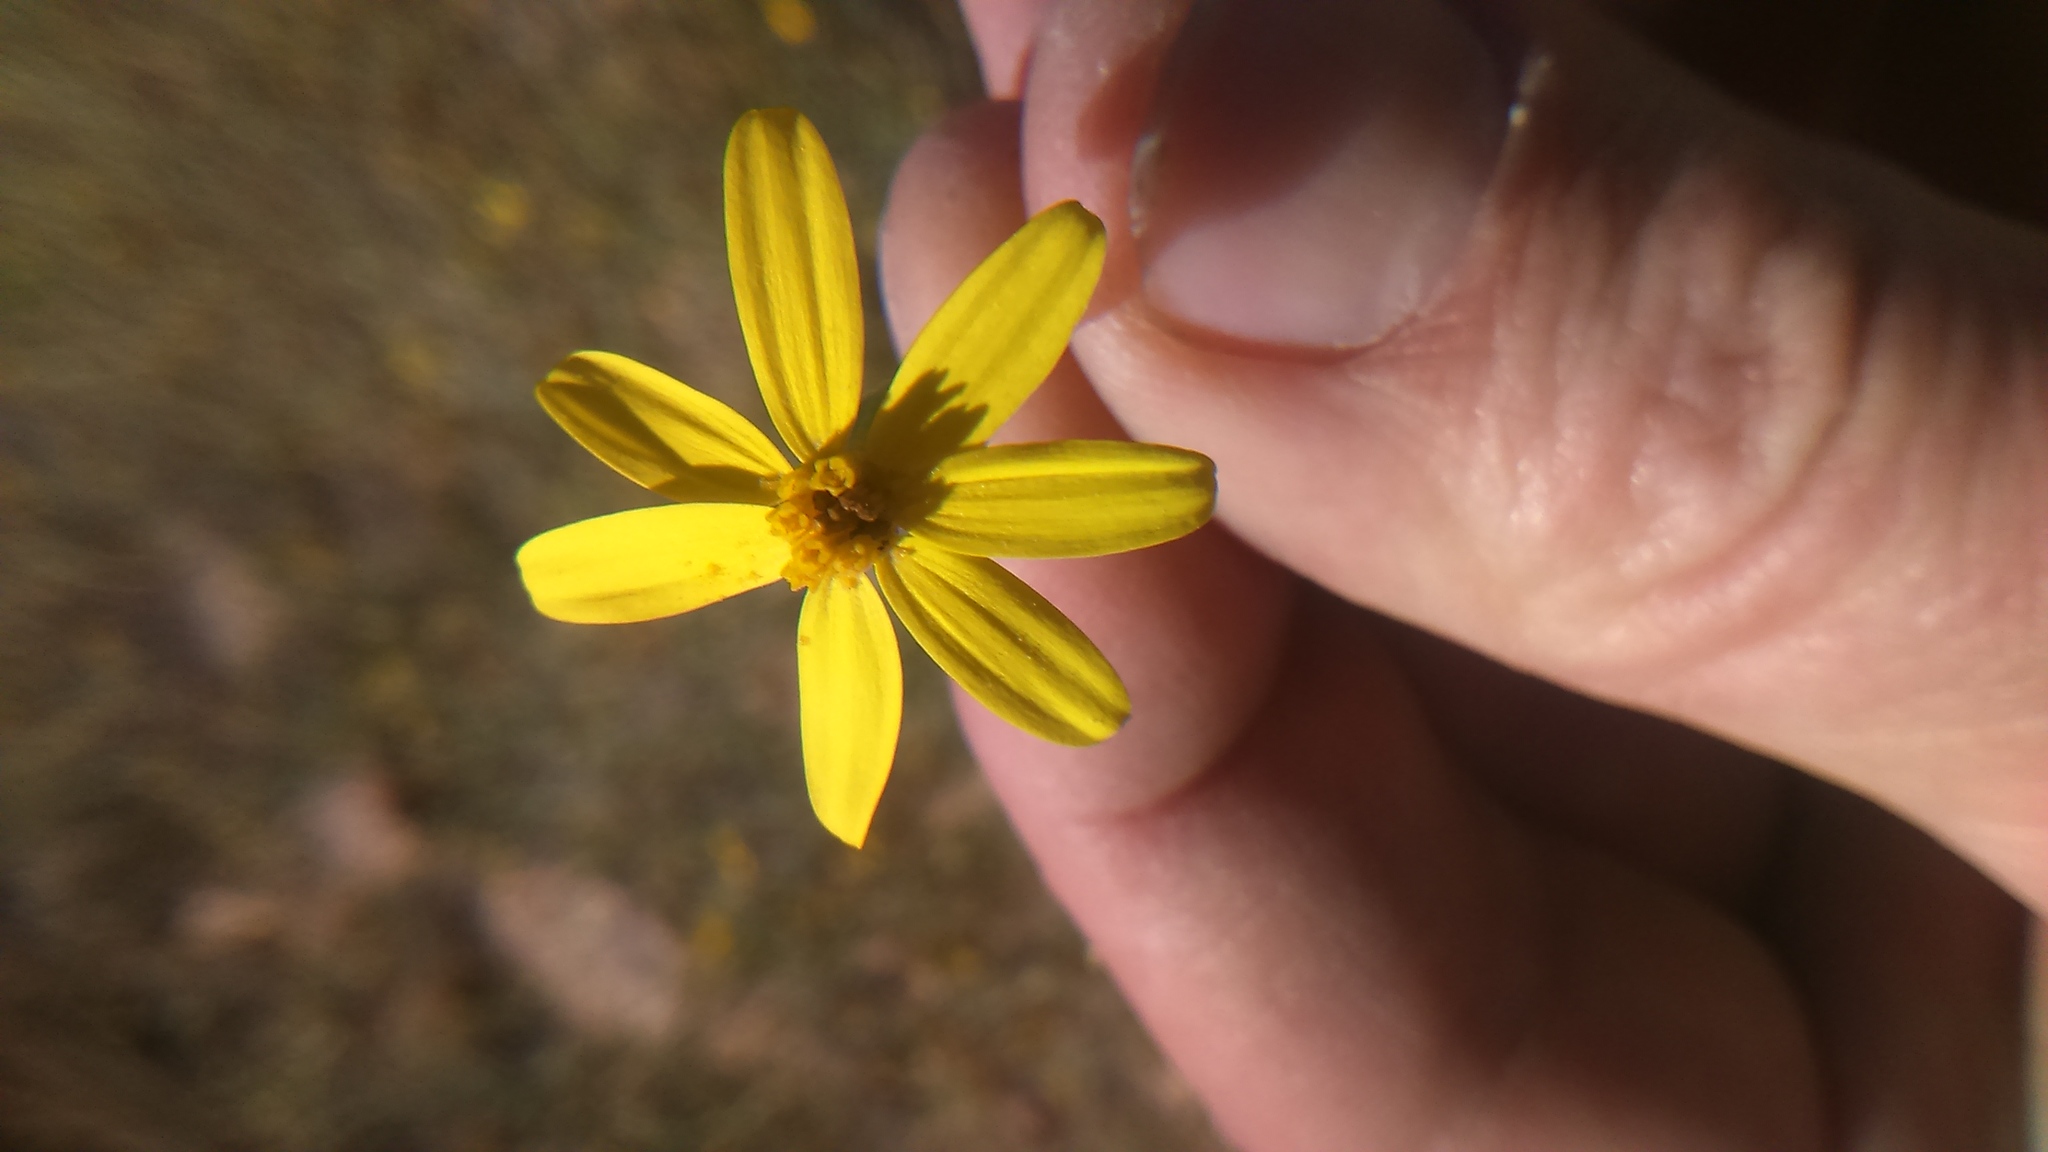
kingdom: Plantae
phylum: Tracheophyta
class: Magnoliopsida
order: Asterales
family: Asteraceae
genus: Senecio
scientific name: Senecio yurensis
